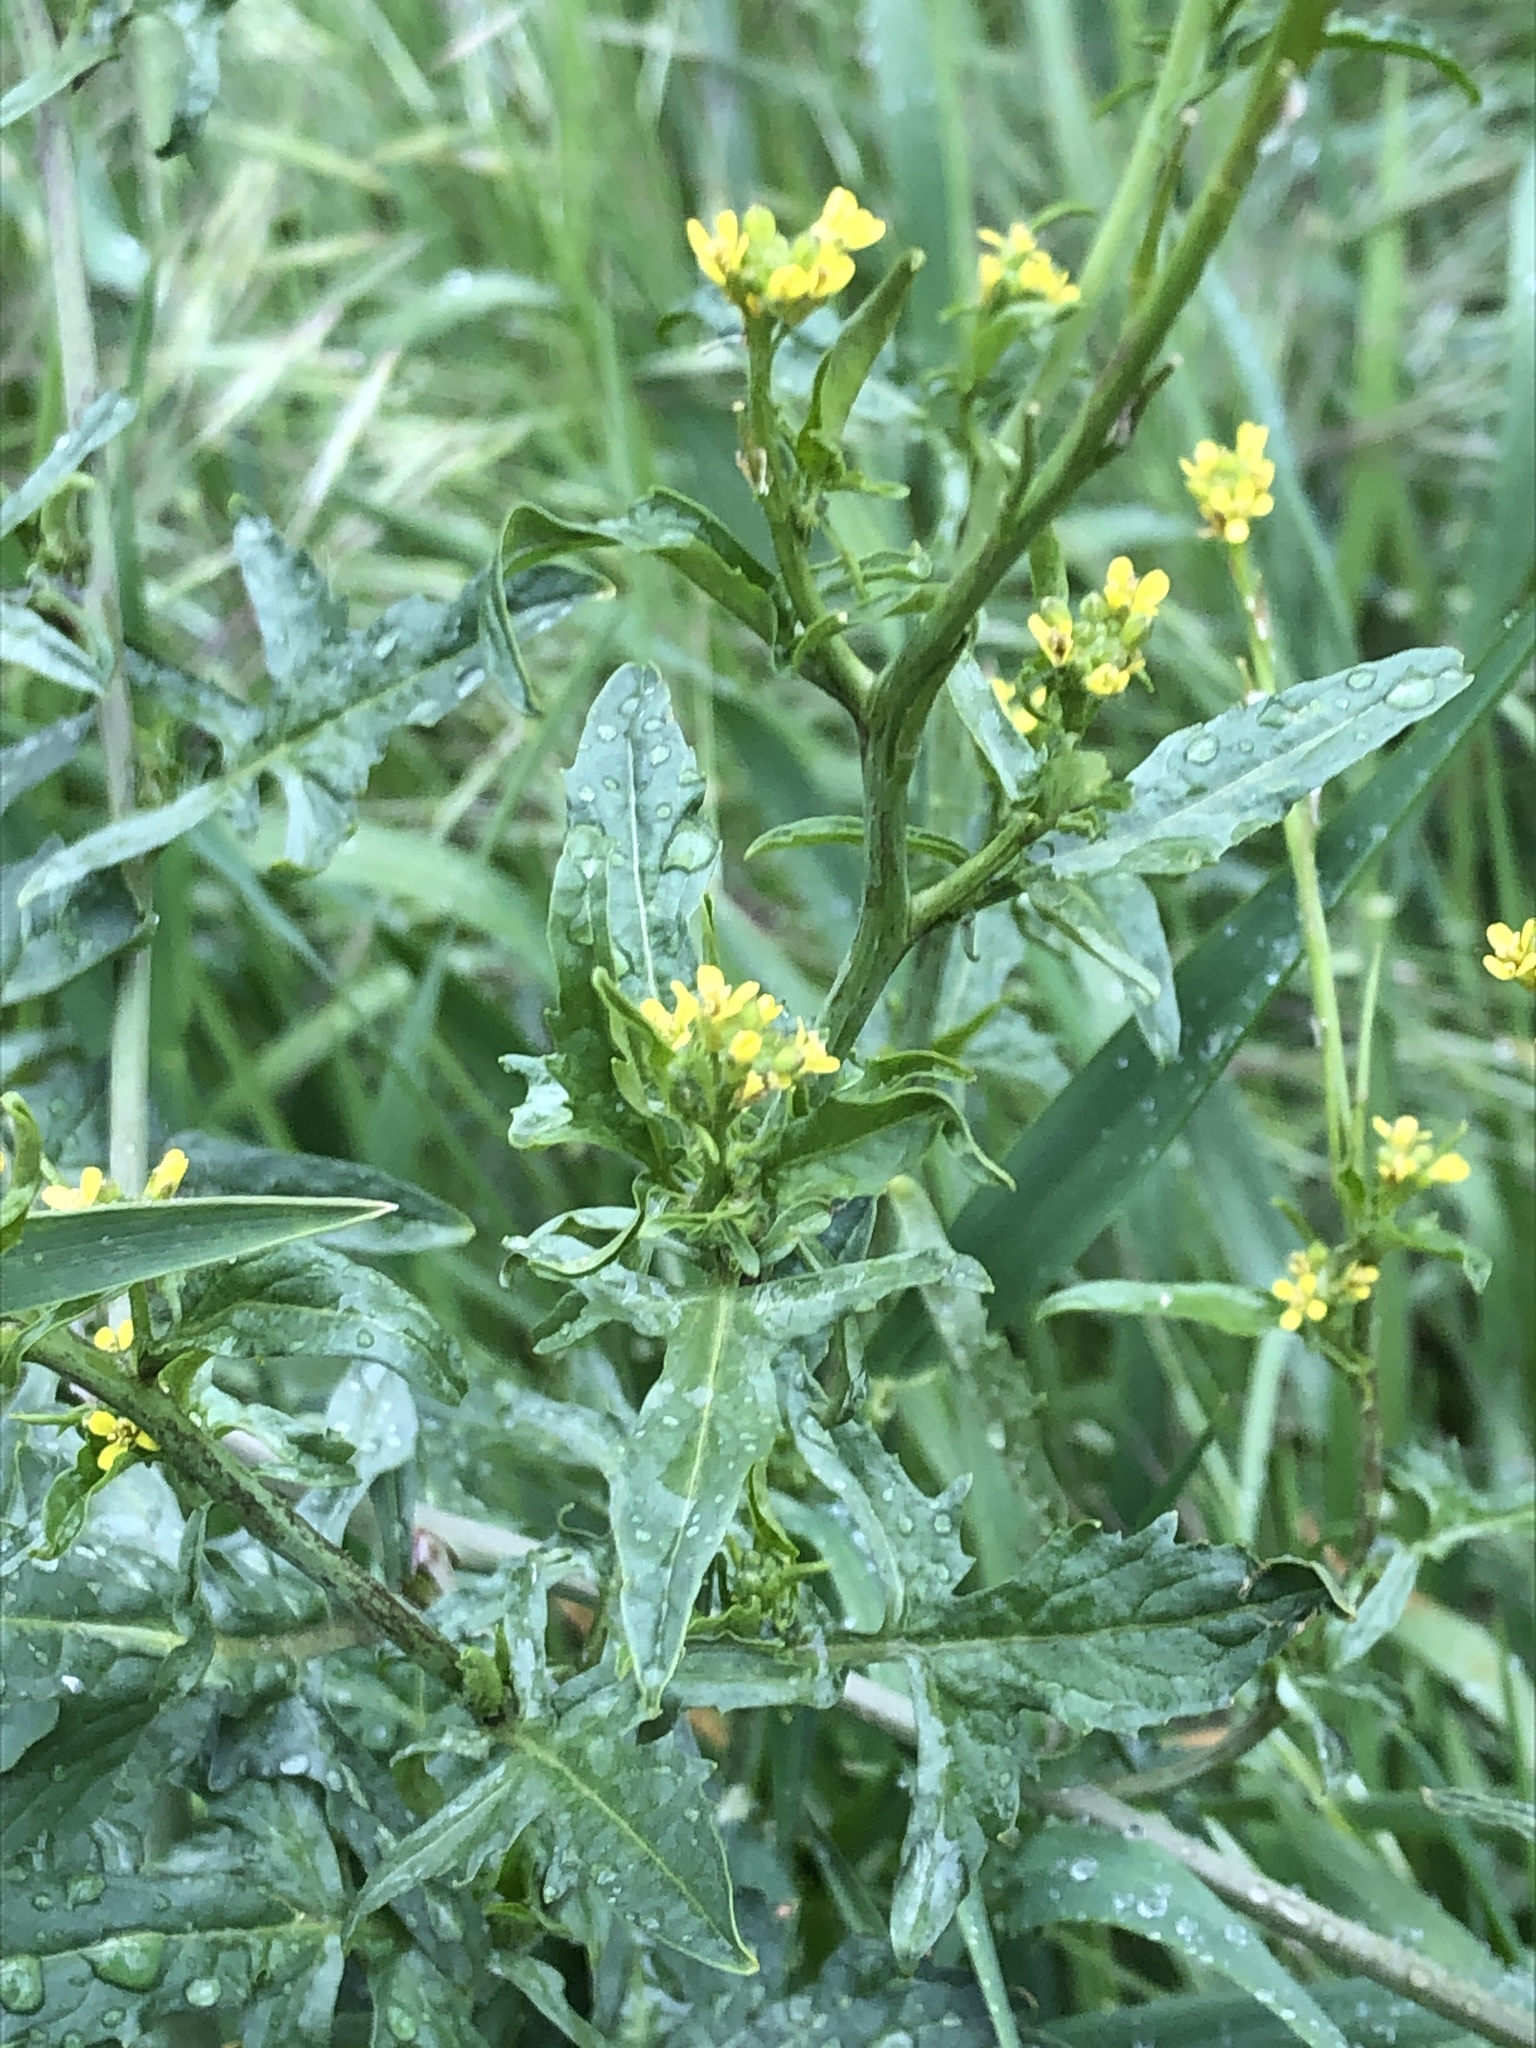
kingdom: Plantae
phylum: Tracheophyta
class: Magnoliopsida
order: Brassicales
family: Brassicaceae
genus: Sisymbrium
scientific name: Sisymbrium officinale
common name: Hedge mustard
